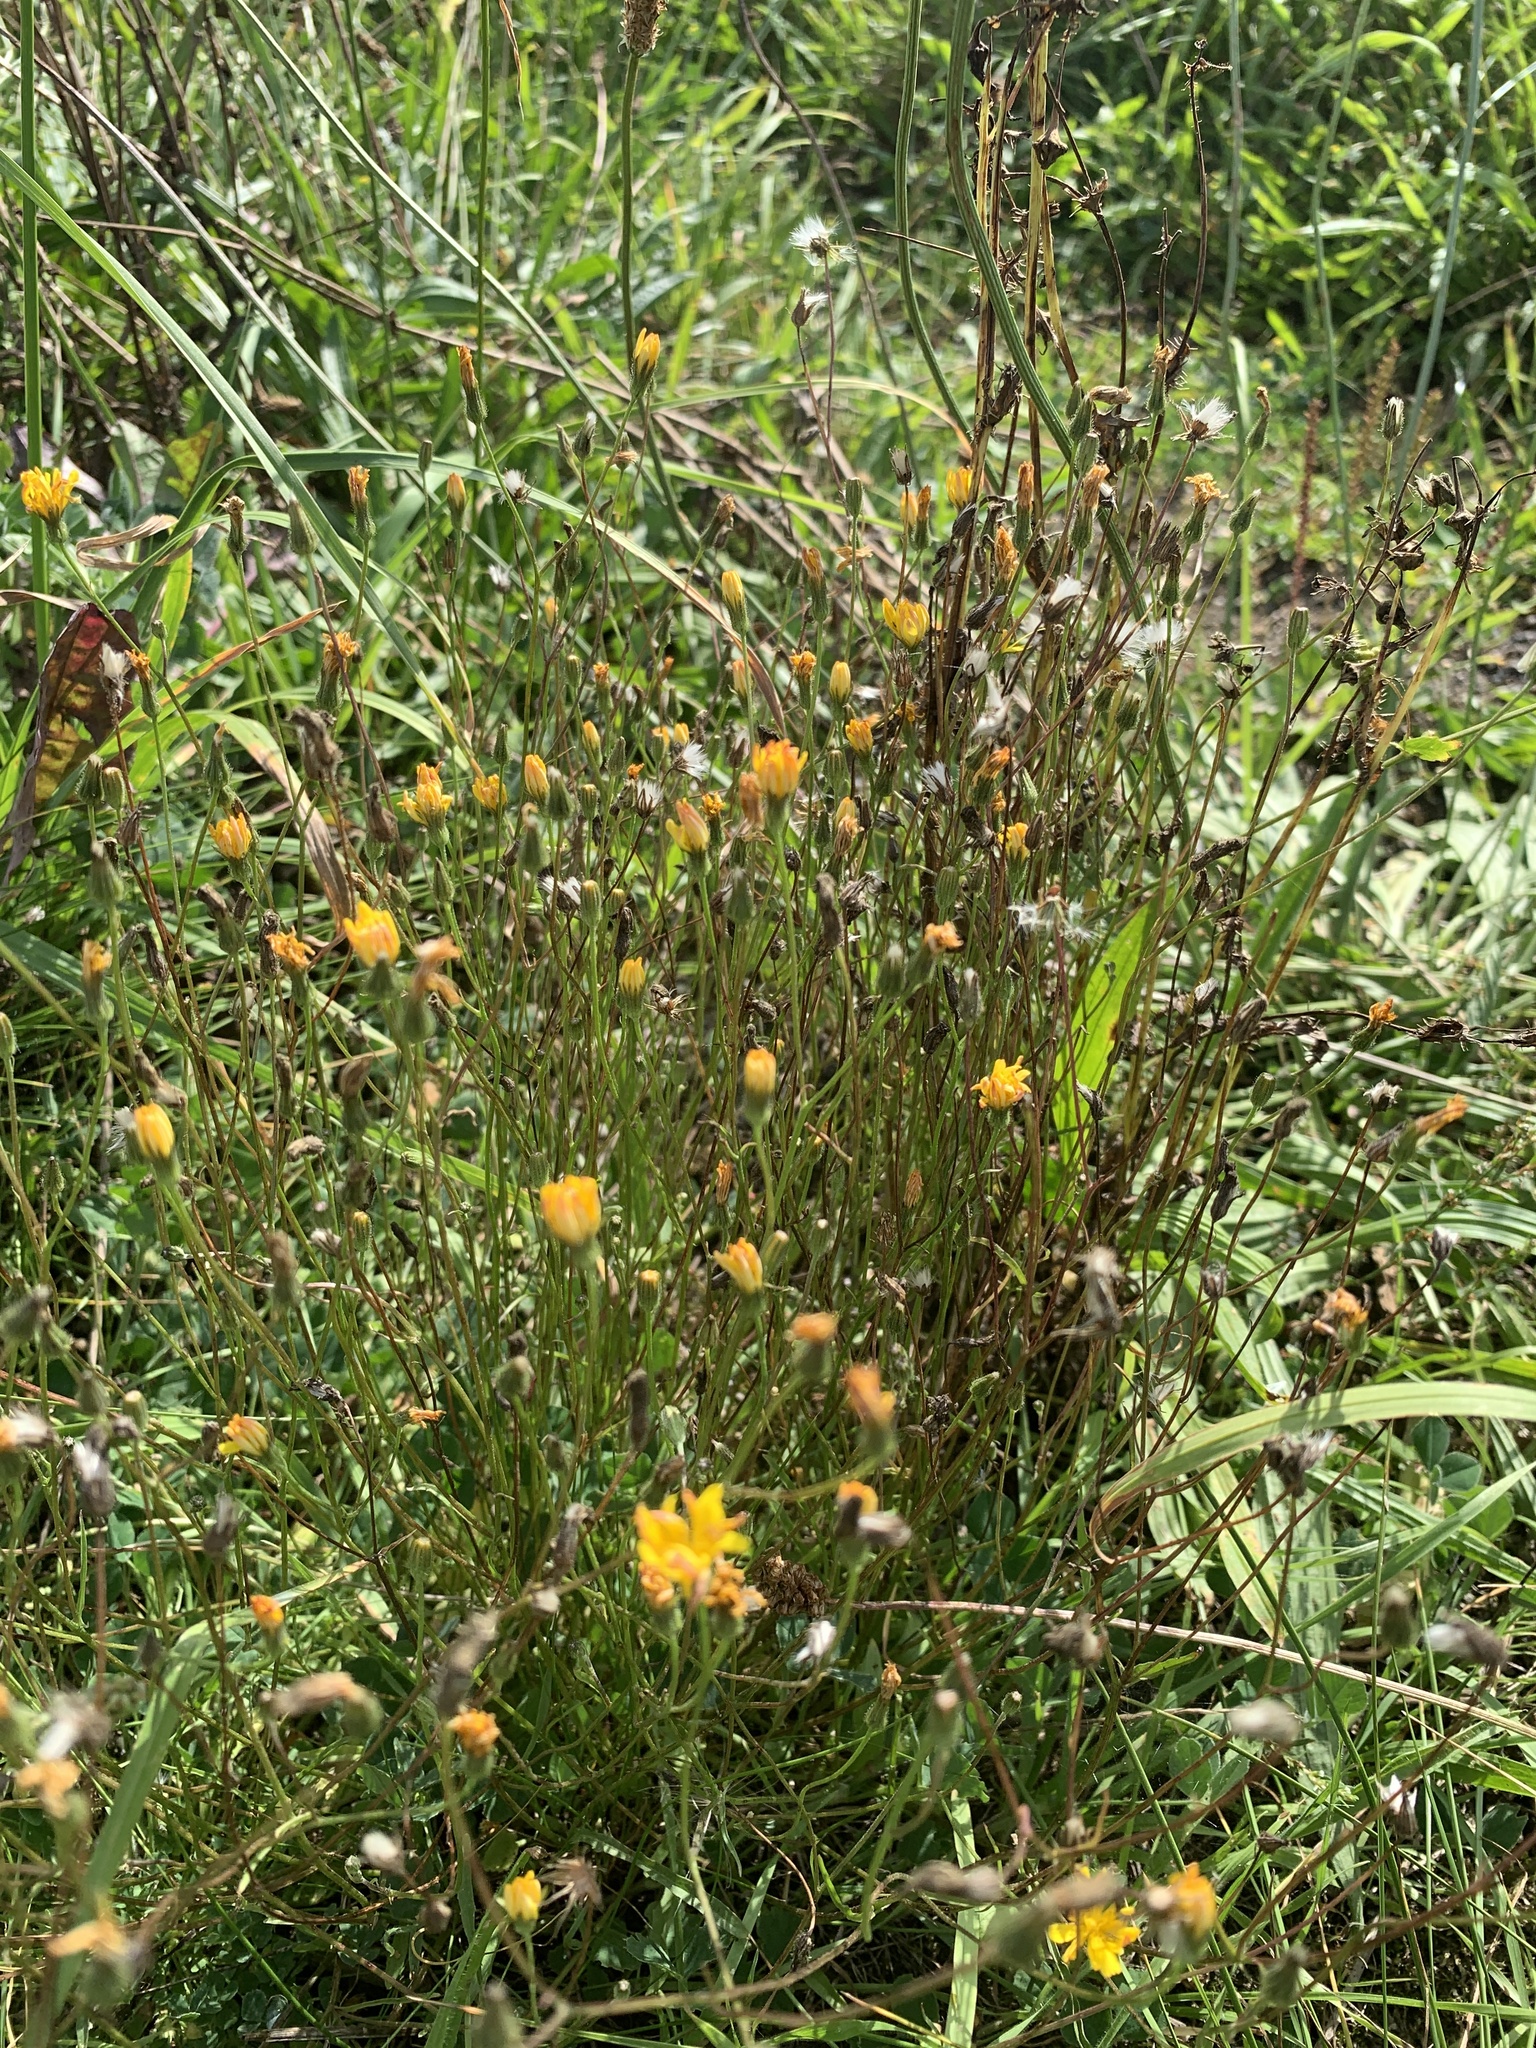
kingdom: Plantae
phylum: Tracheophyta
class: Magnoliopsida
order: Asterales
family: Asteraceae
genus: Crepis
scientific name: Crepis capillaris
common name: Smooth hawksbeard
